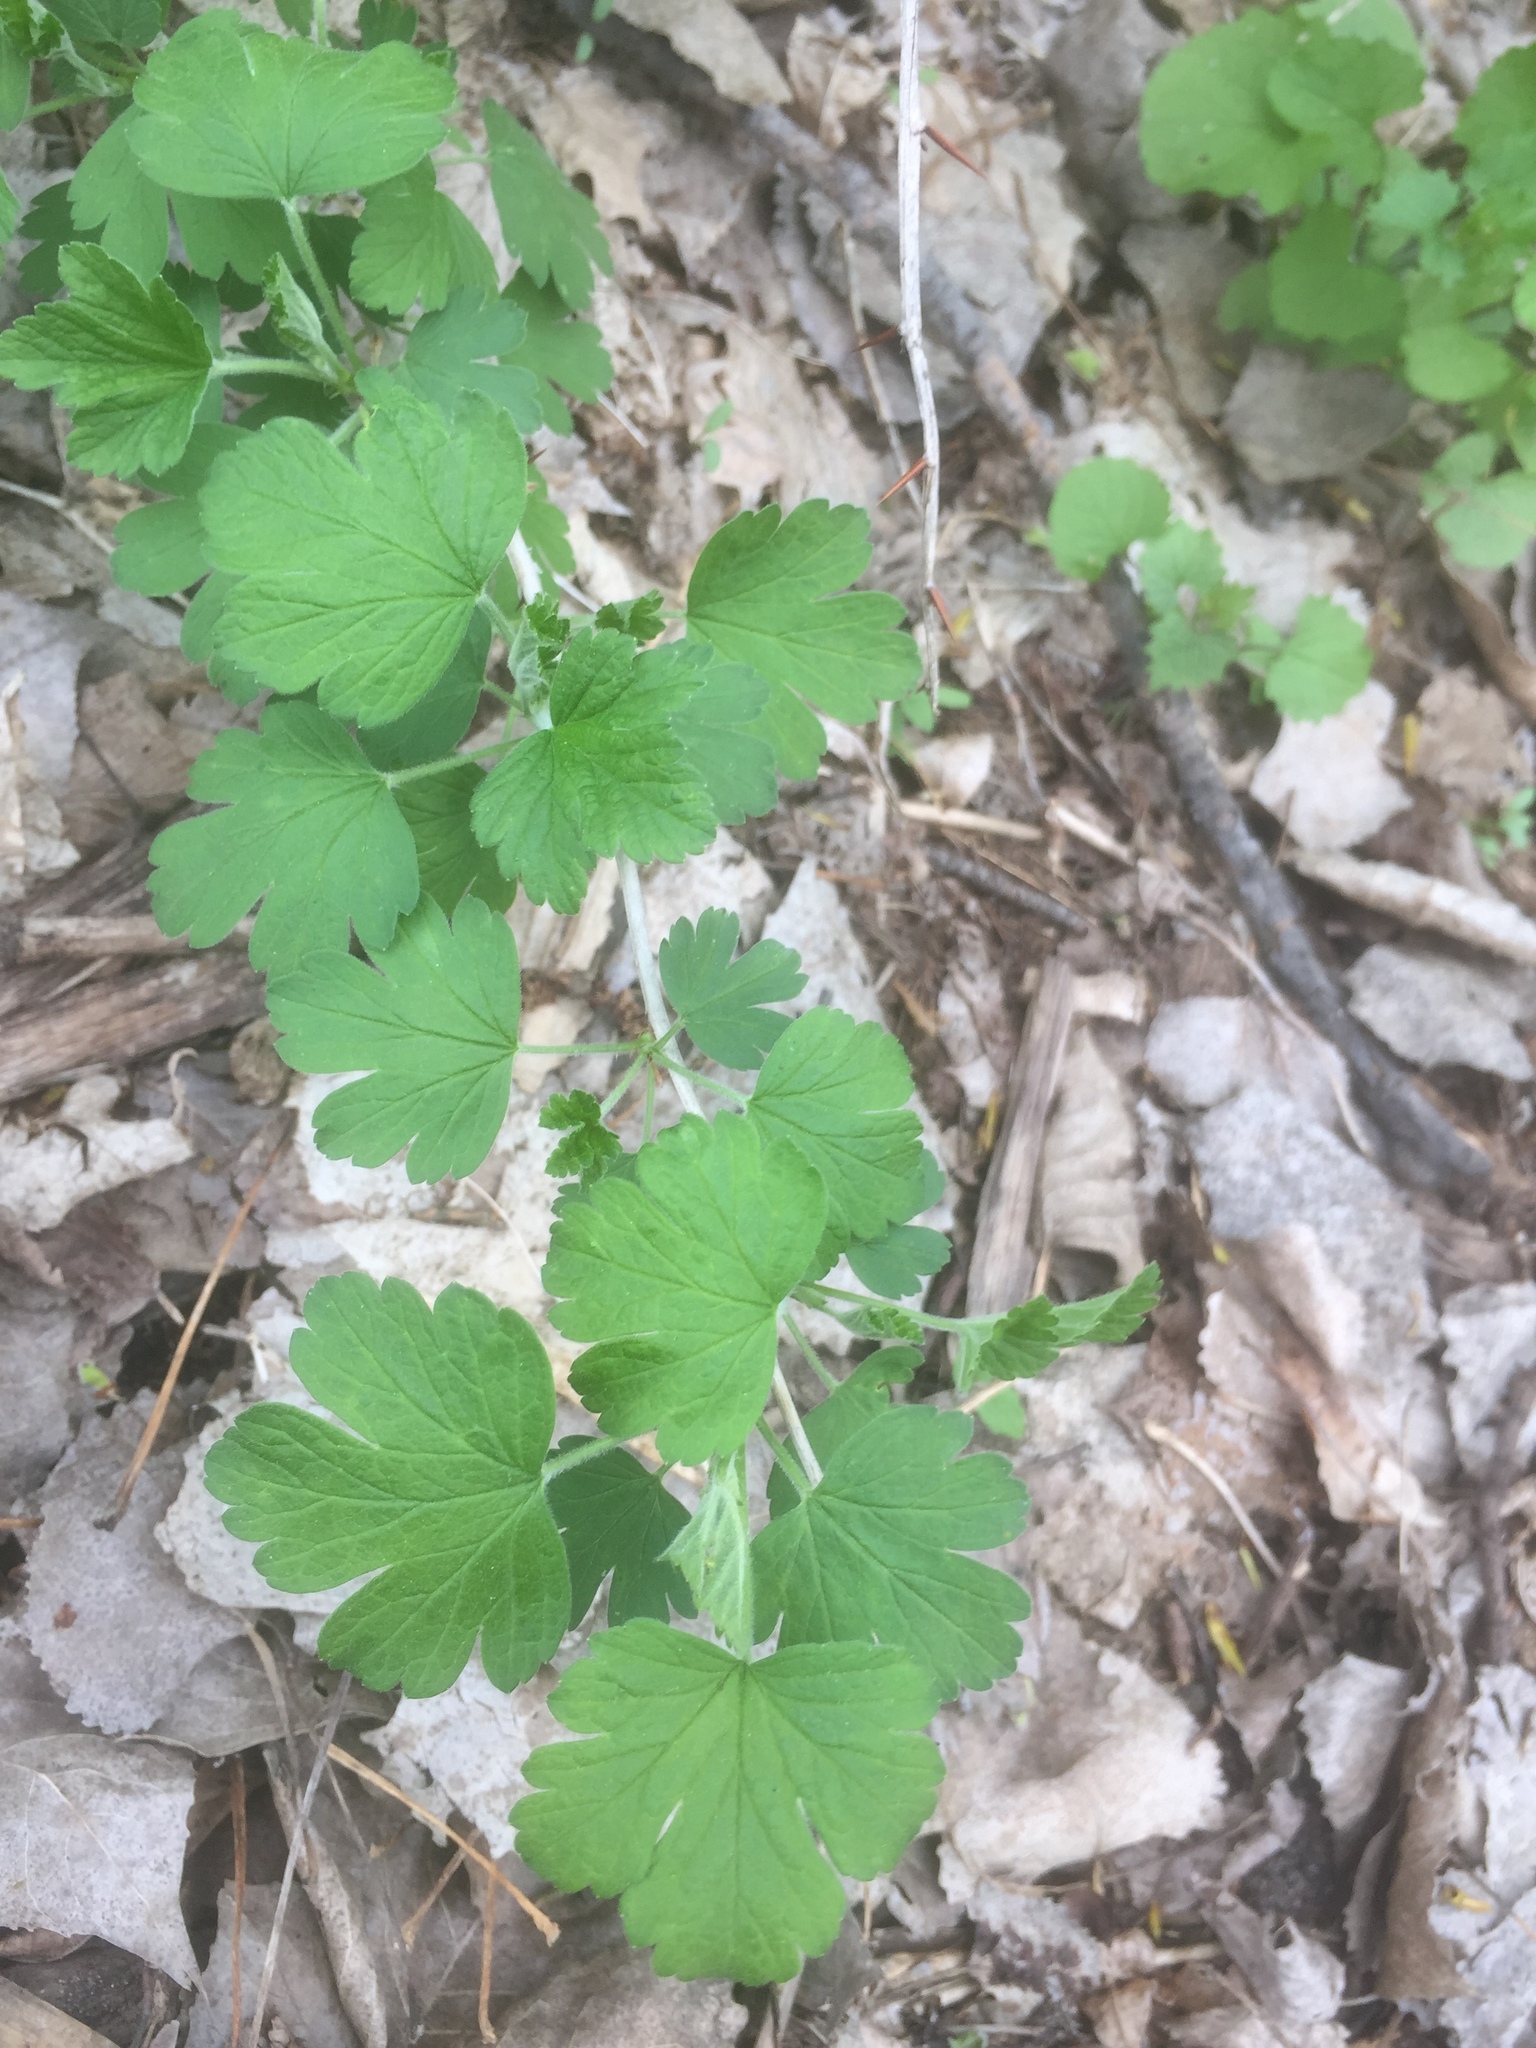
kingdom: Plantae
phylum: Tracheophyta
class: Magnoliopsida
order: Saxifragales
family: Grossulariaceae
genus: Ribes
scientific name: Ribes missouriense
